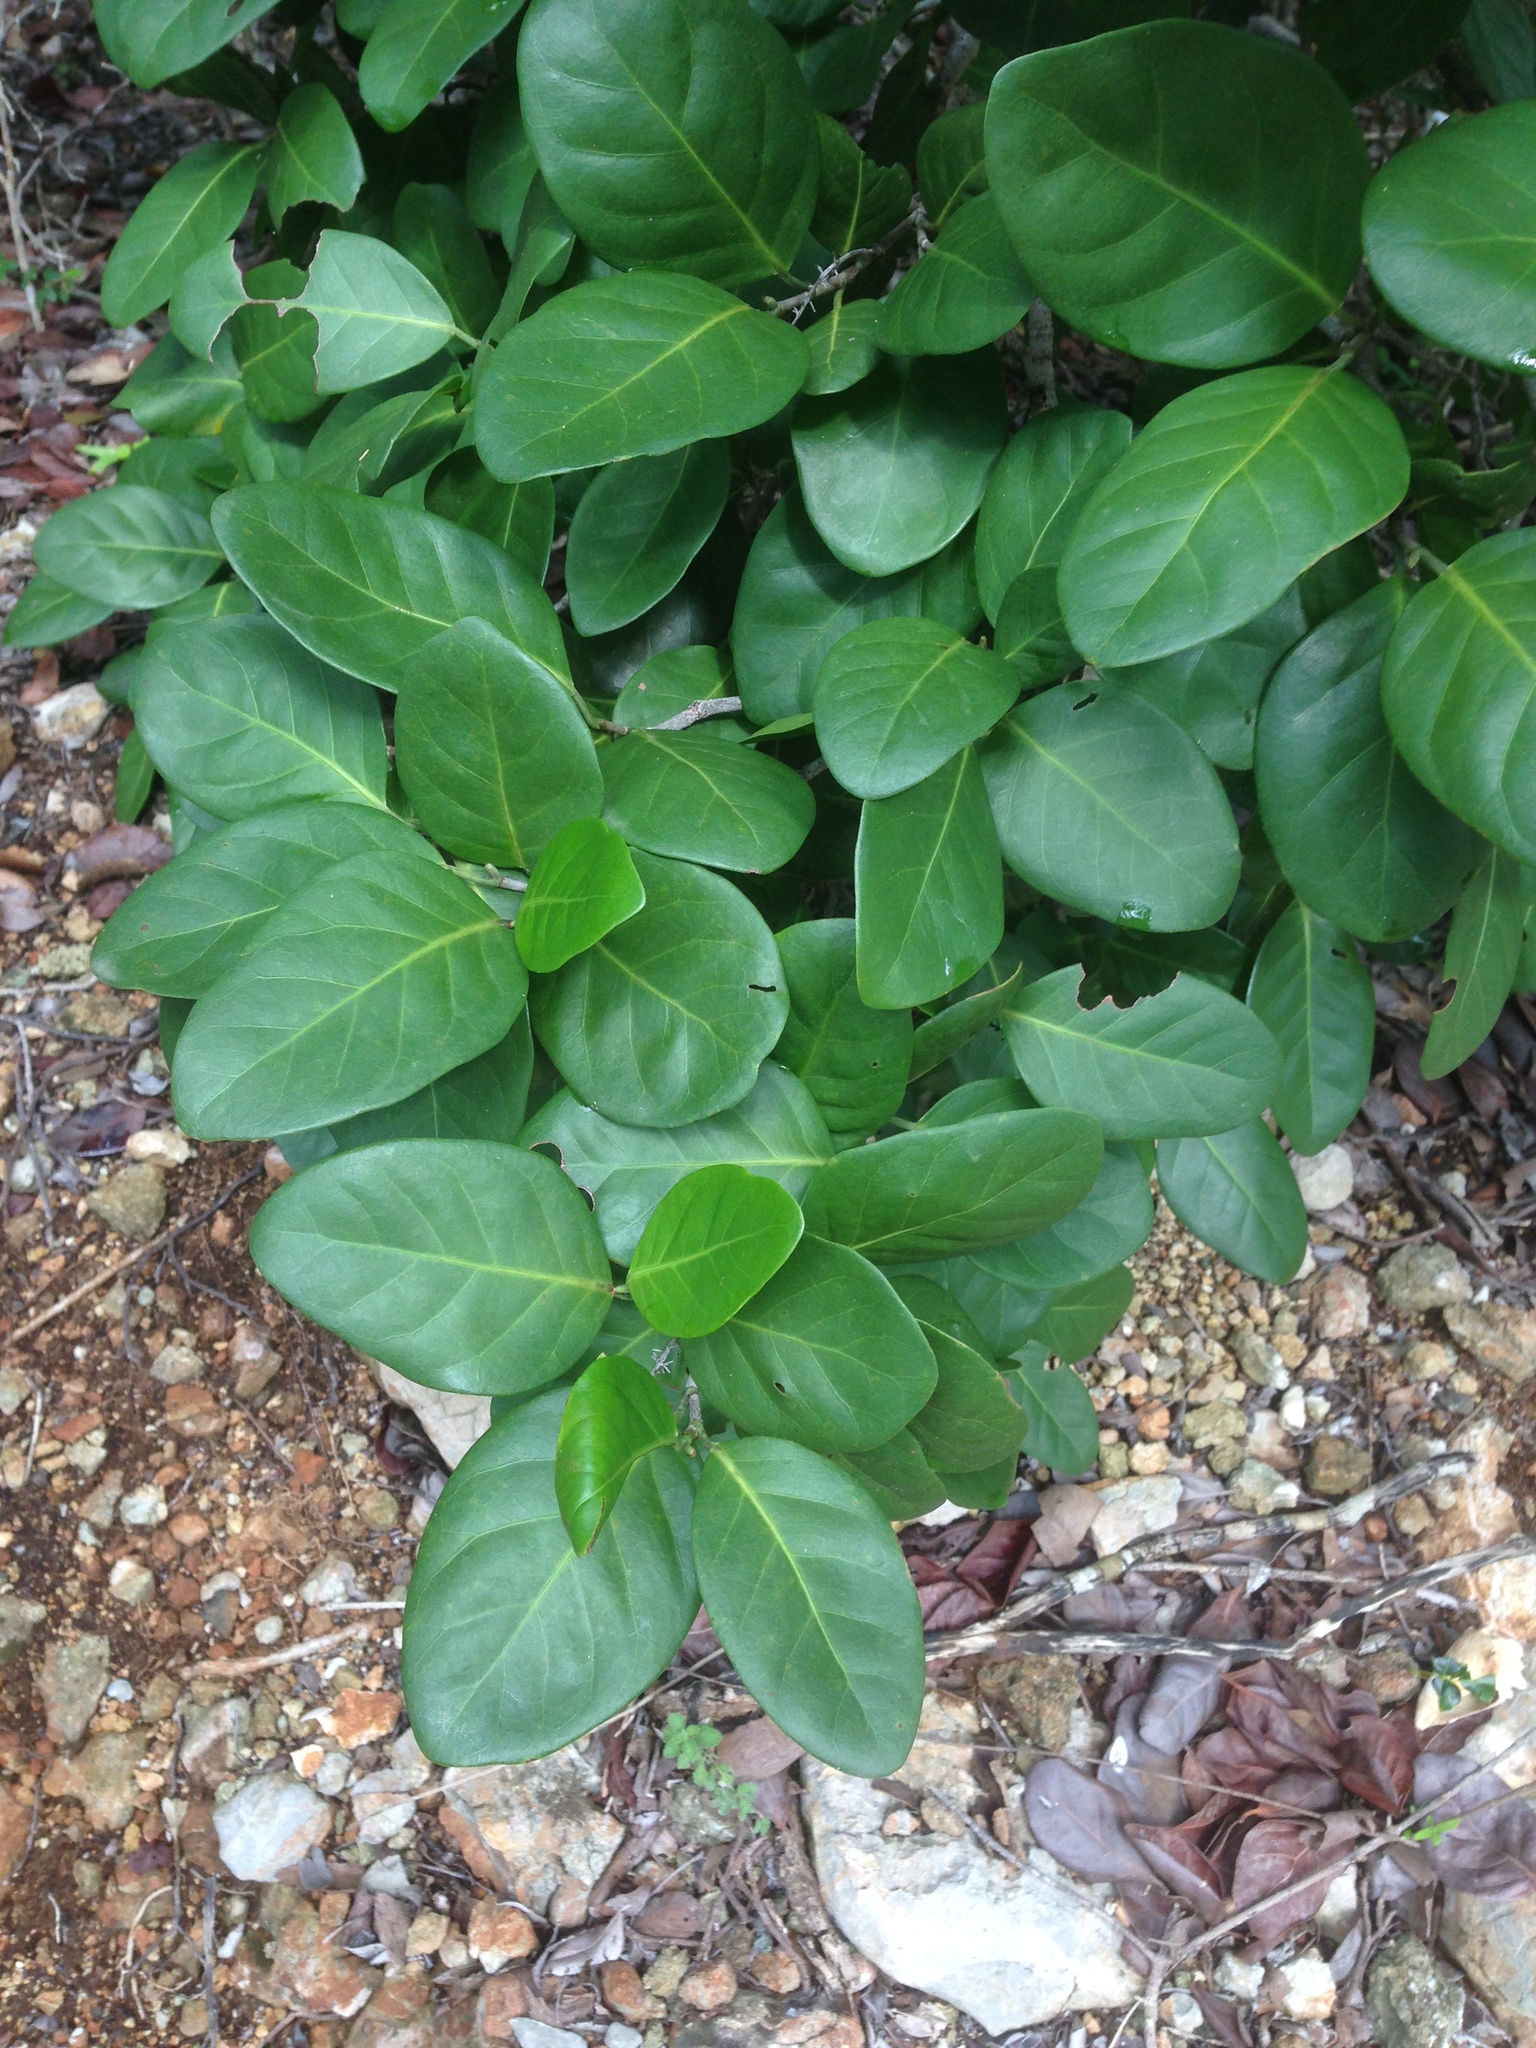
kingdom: Plantae
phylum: Tracheophyta
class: Magnoliopsida
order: Caryophyllales
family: Polygonaceae
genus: Coccoloba
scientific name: Coccoloba diversifolia
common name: Pigeon-plum
